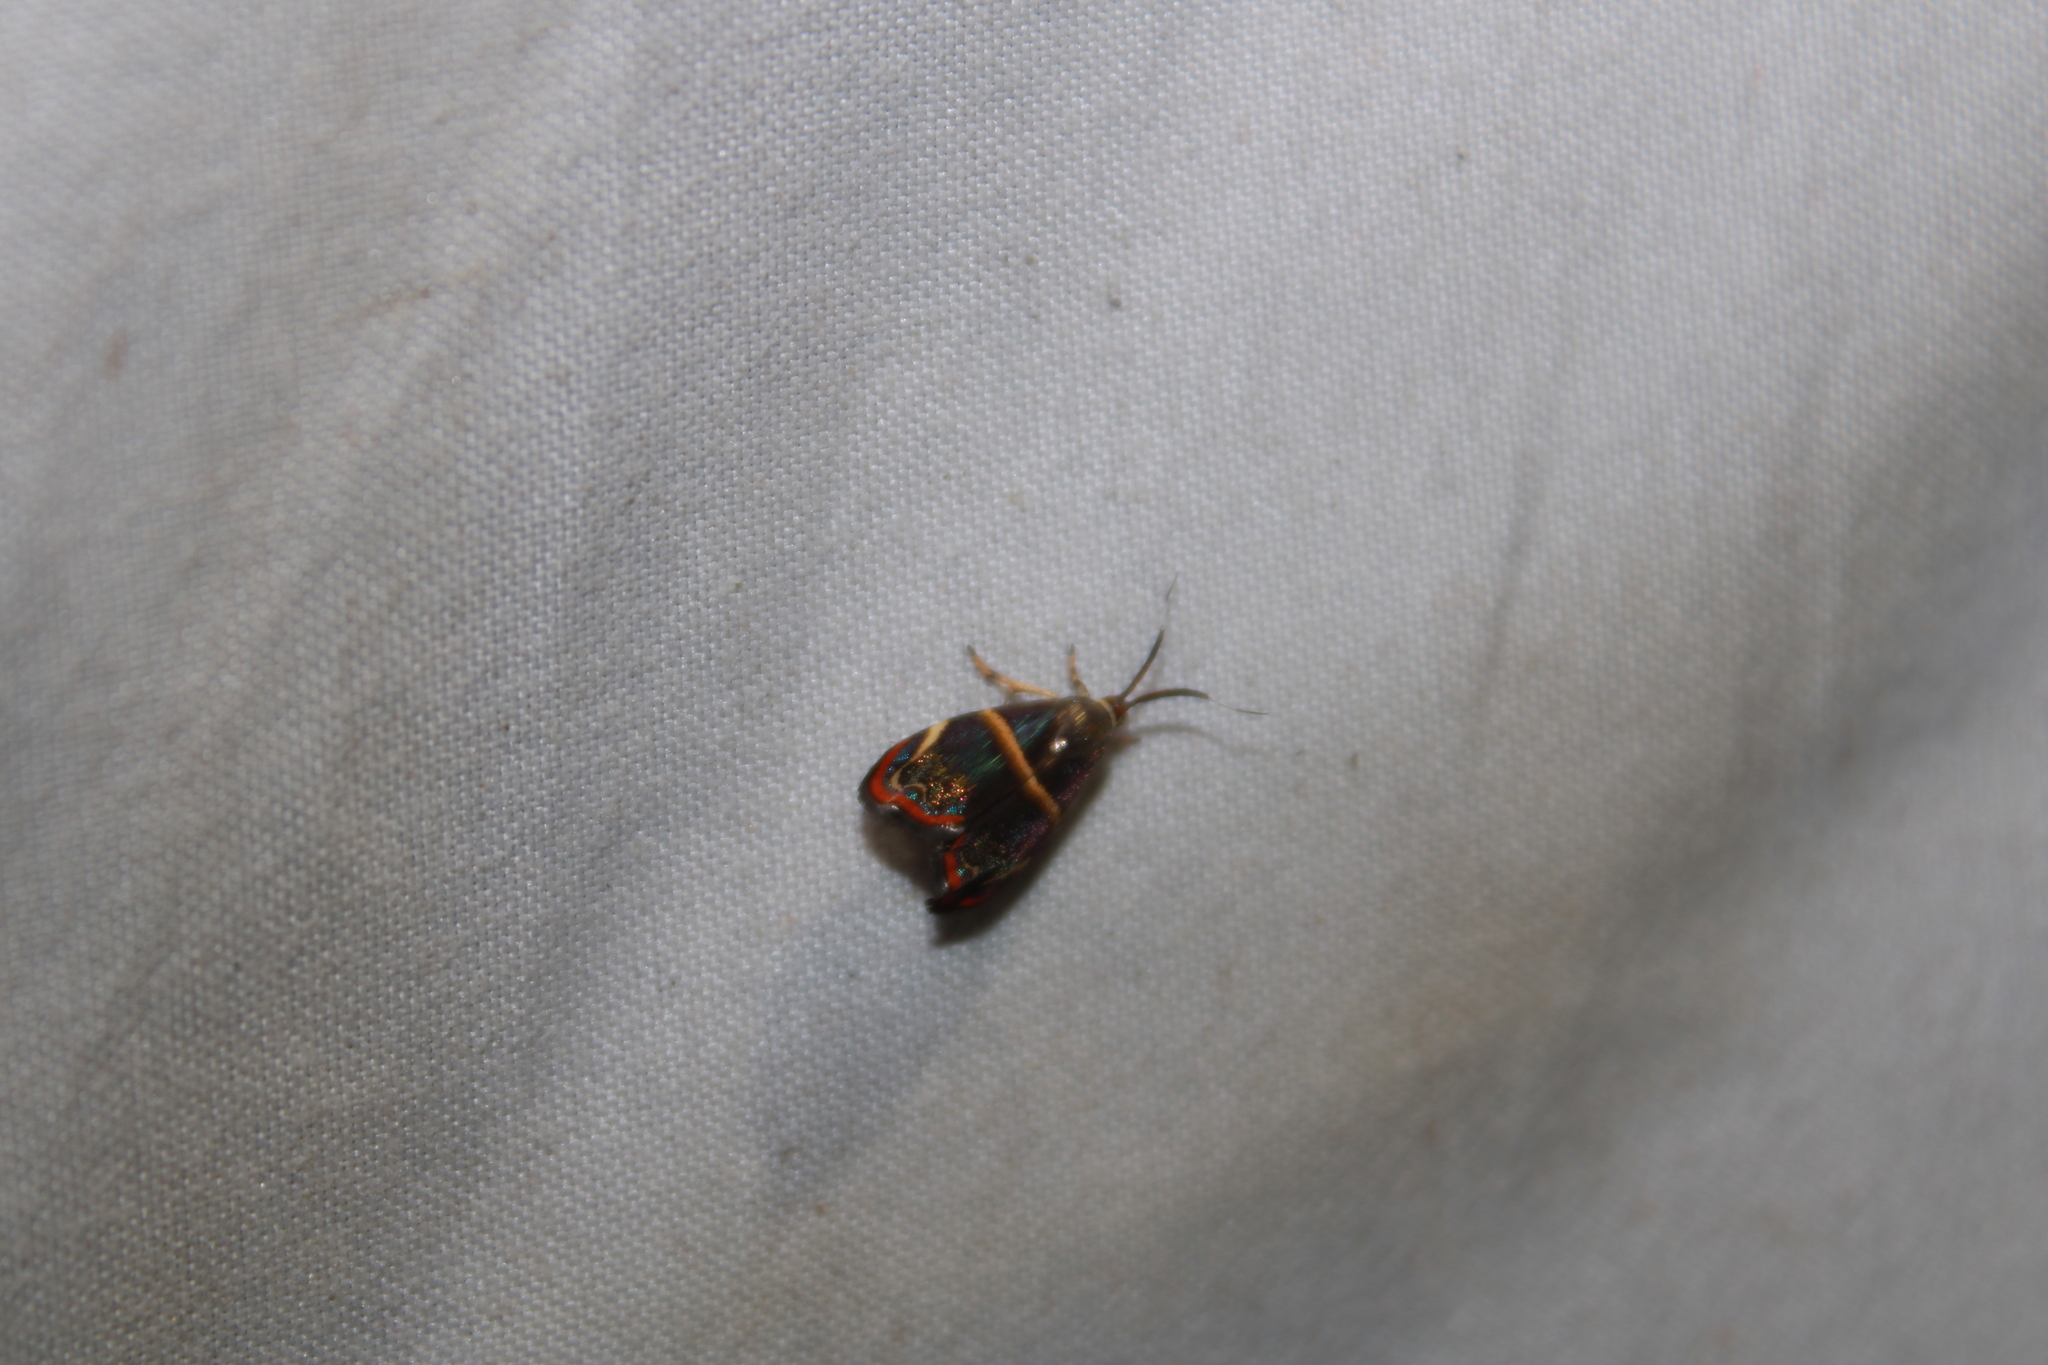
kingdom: Animalia
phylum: Arthropoda
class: Insecta
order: Lepidoptera
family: Choreutidae
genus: Hemerophila
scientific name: Hemerophila
